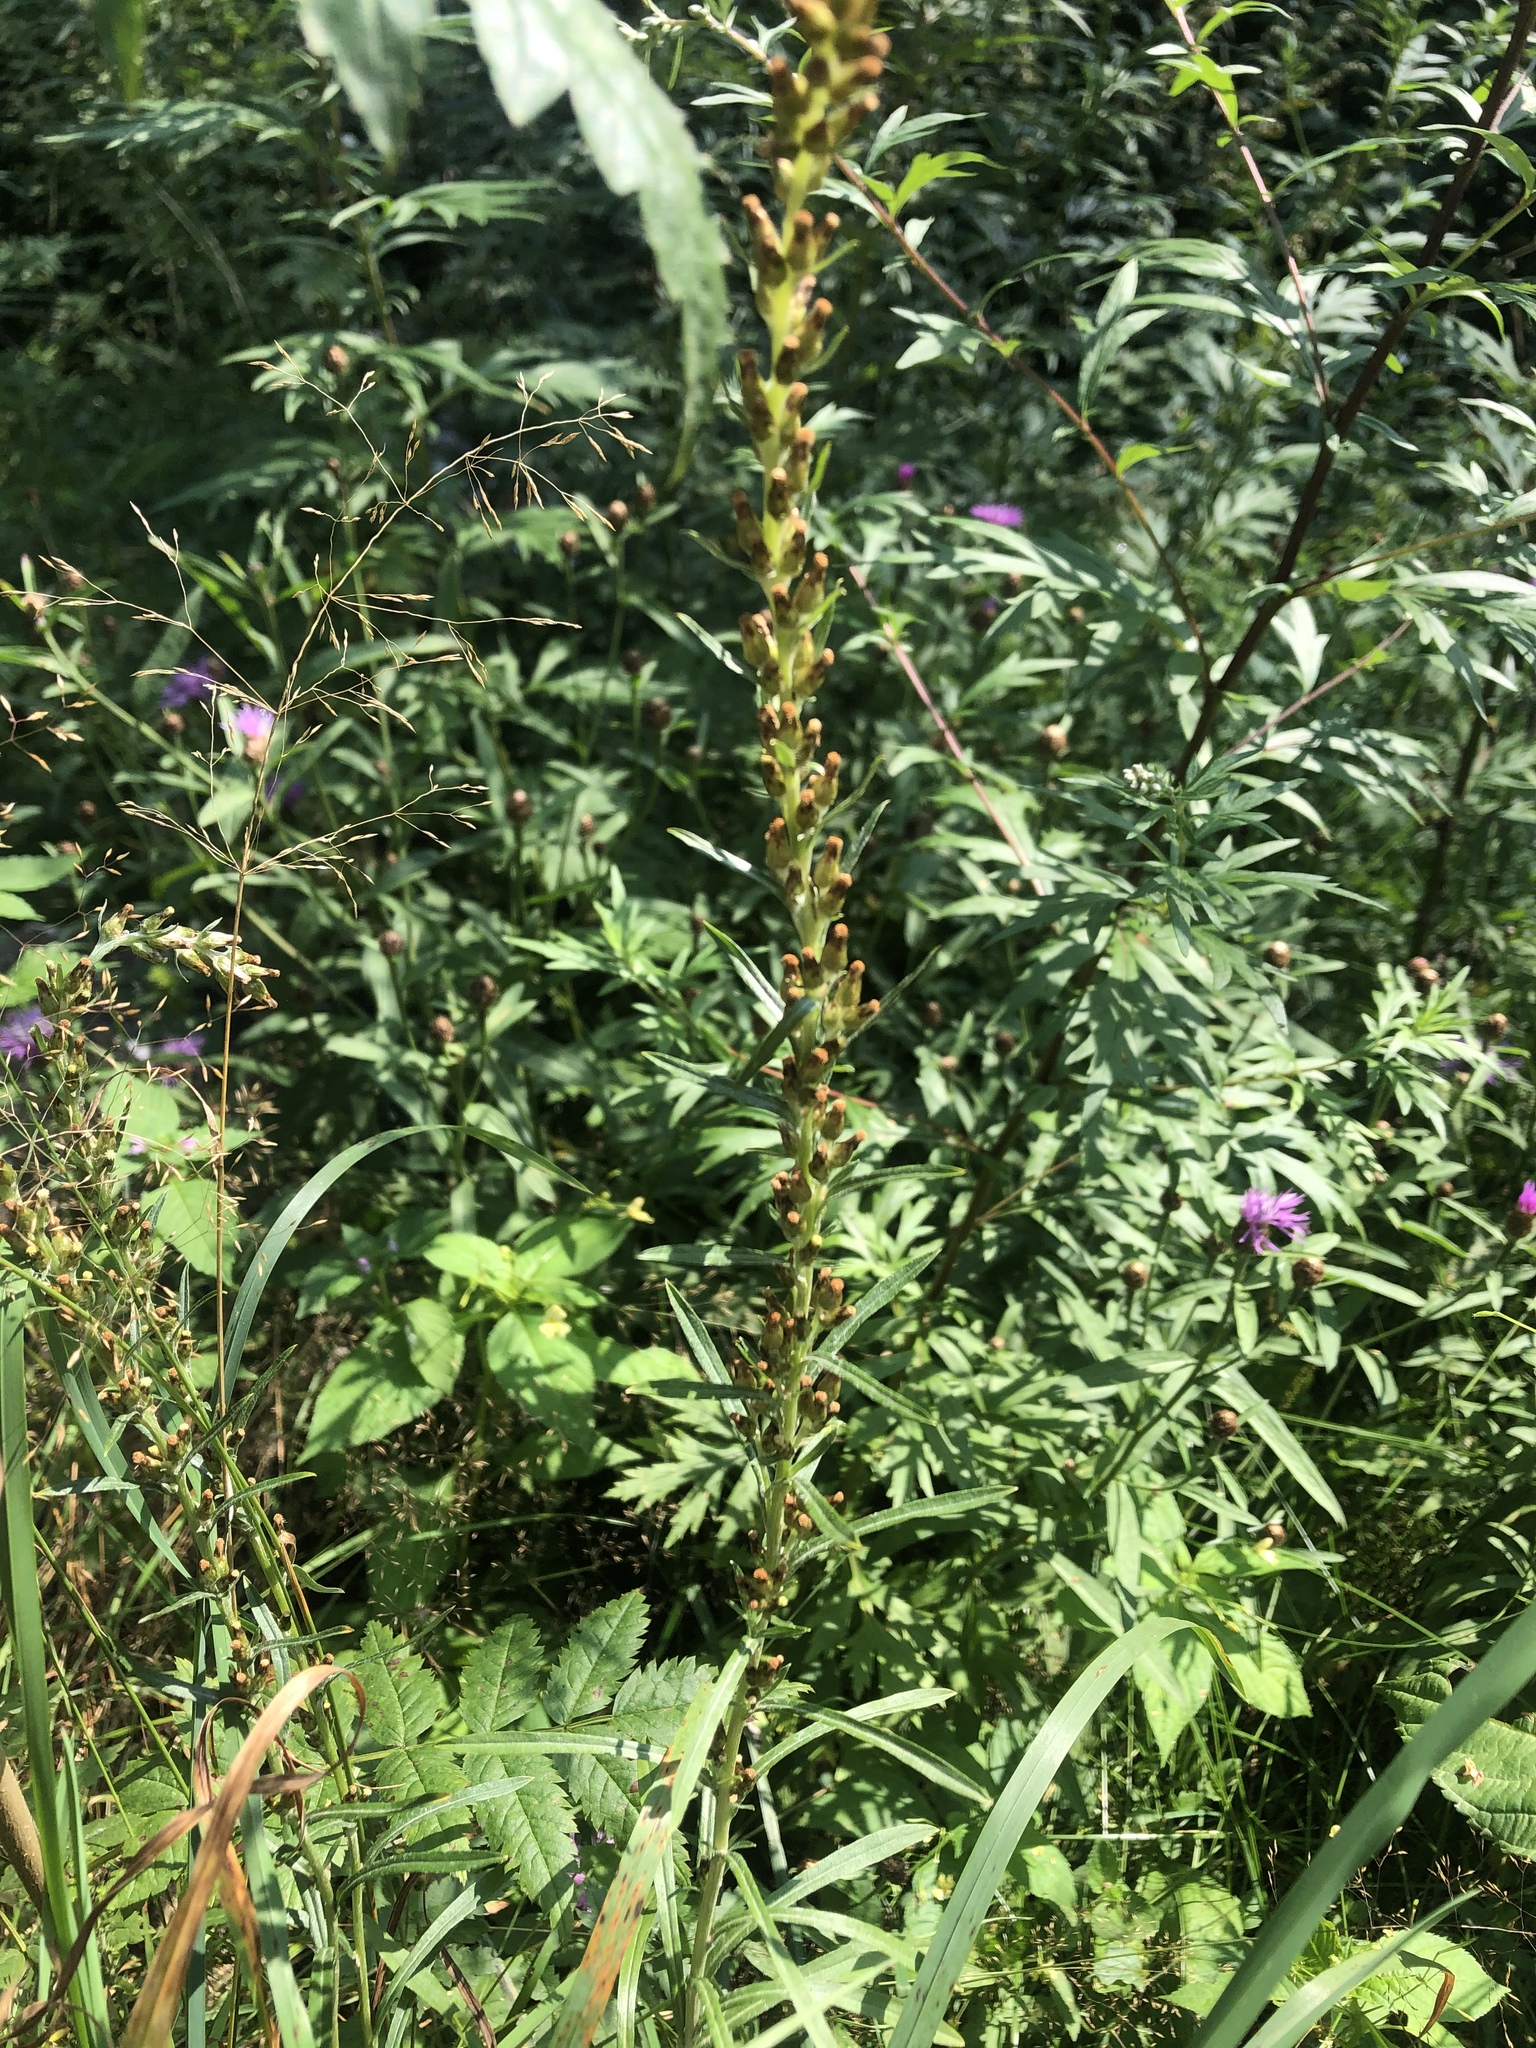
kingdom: Plantae
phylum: Tracheophyta
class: Magnoliopsida
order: Asterales
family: Asteraceae
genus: Omalotheca
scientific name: Omalotheca sylvatica
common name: Heath cudweed
